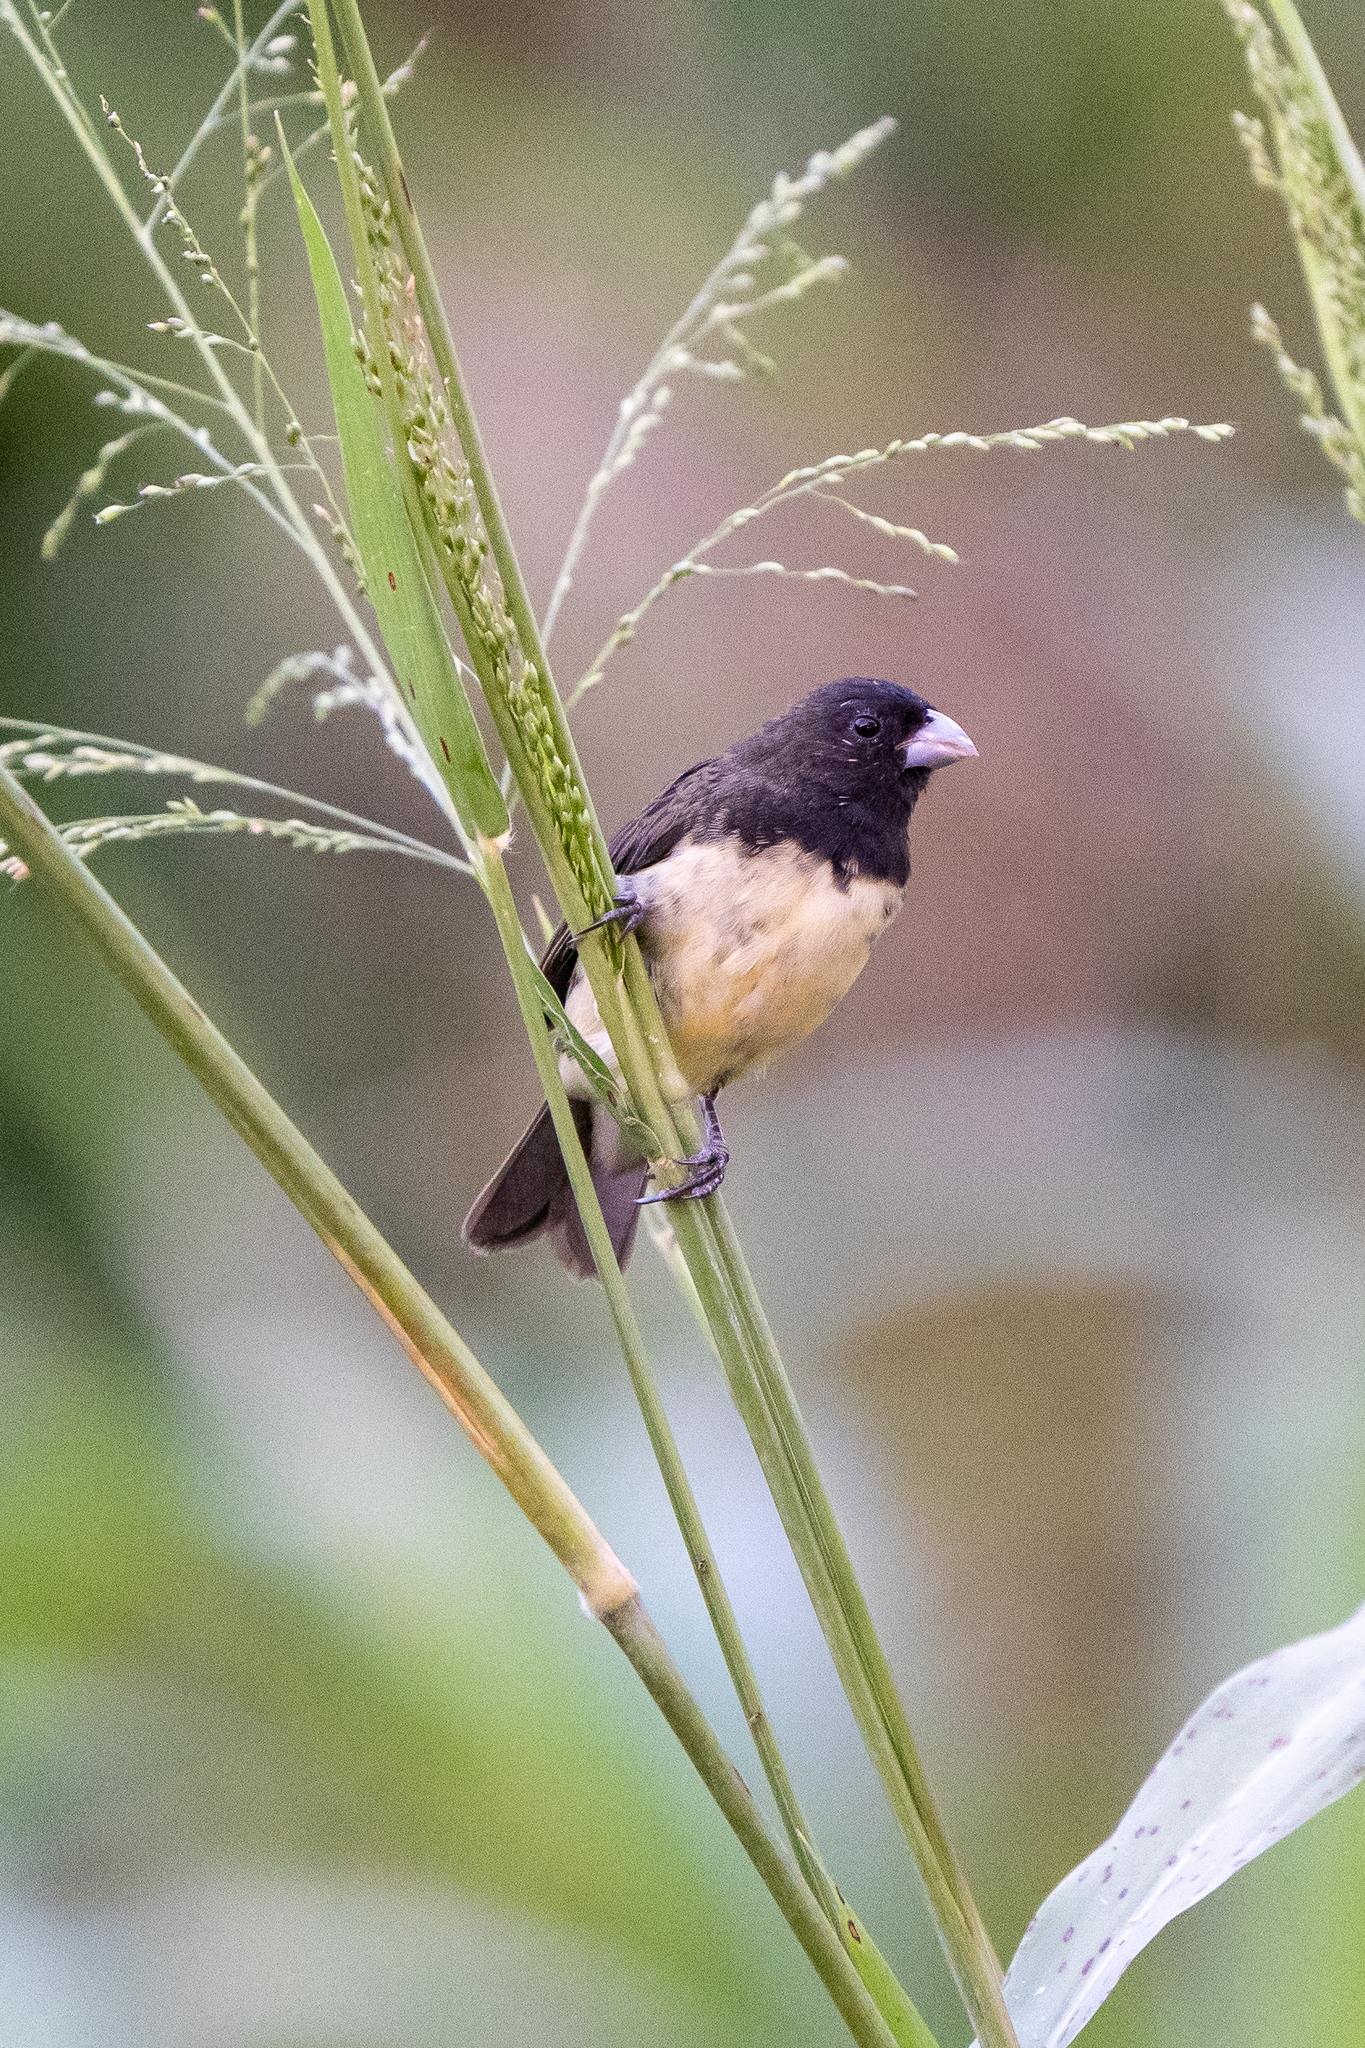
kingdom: Animalia
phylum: Chordata
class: Aves
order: Passeriformes
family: Thraupidae
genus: Sporophila
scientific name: Sporophila nigricollis
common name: Yellow-bellied seedeater
